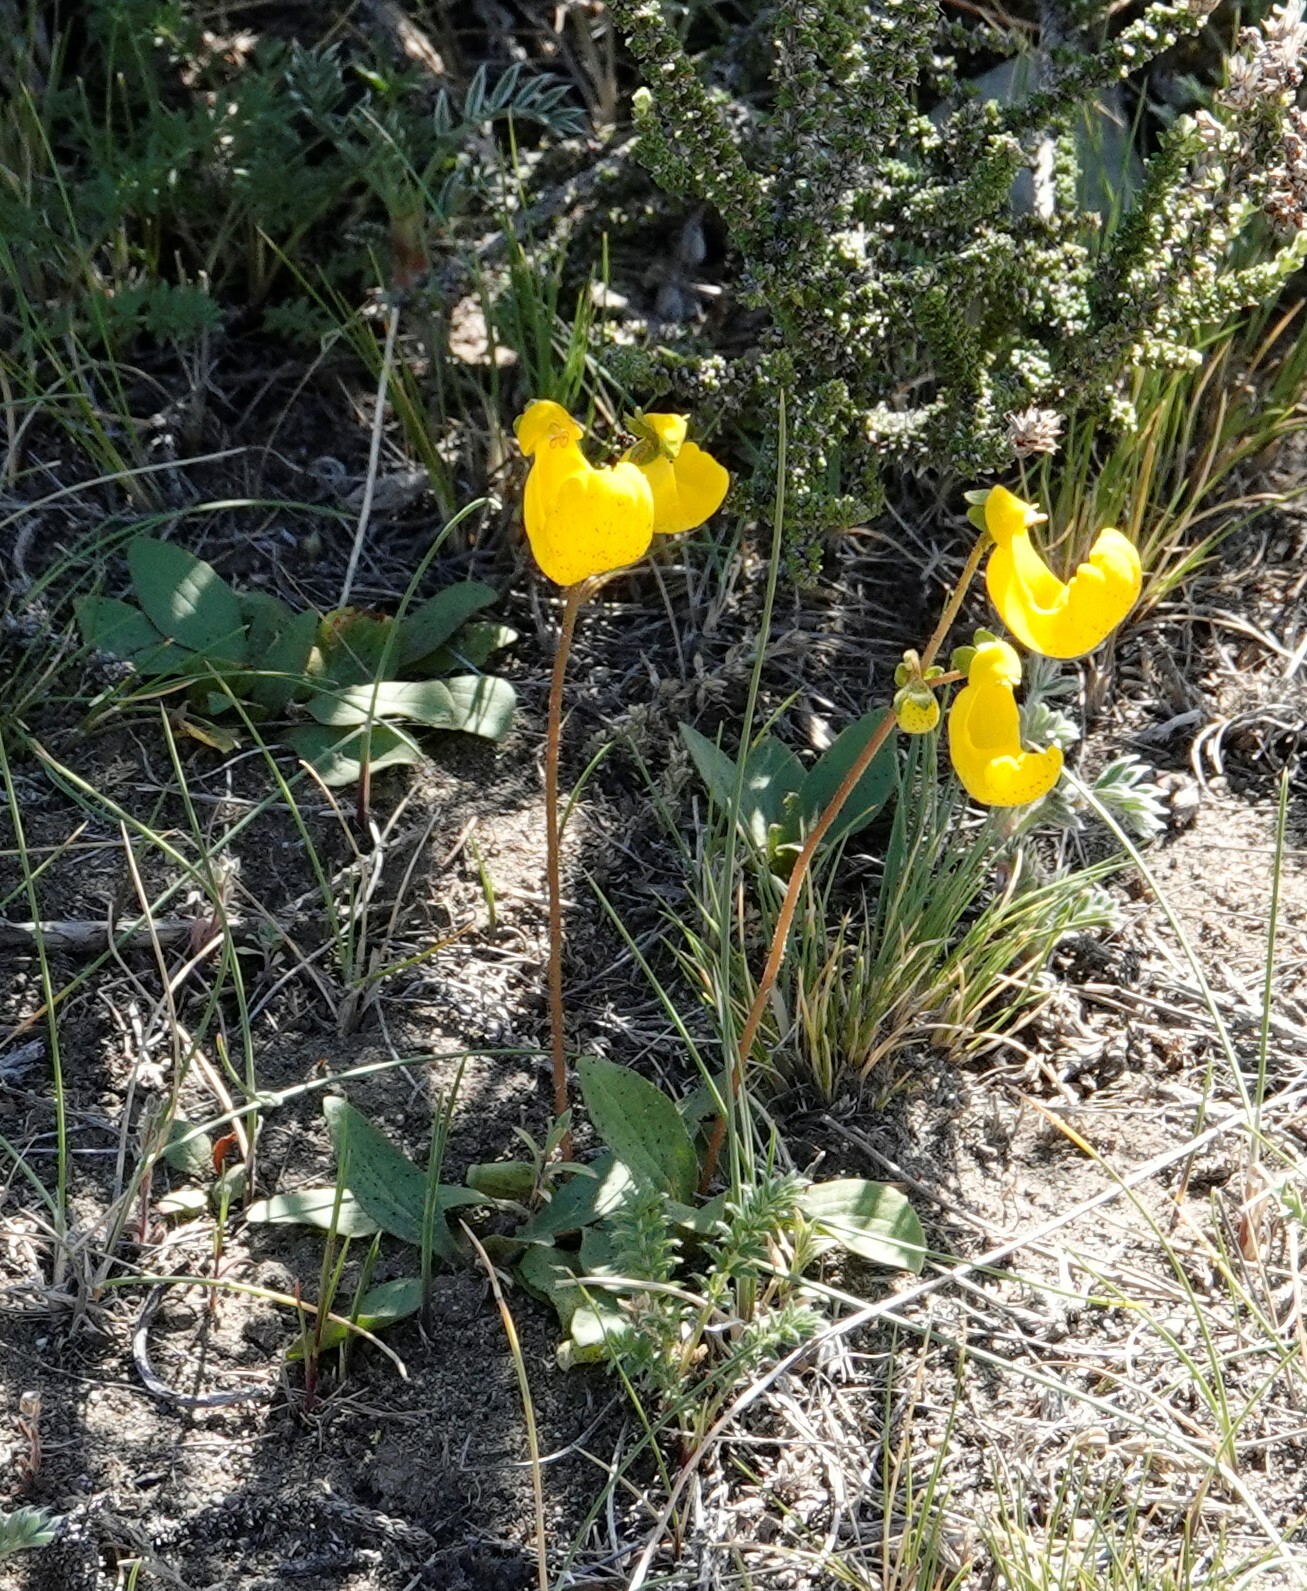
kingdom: Plantae
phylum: Tracheophyta
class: Magnoliopsida
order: Lamiales
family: Calceolariaceae
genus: Calceolaria
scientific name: Calceolaria polyrhiza
